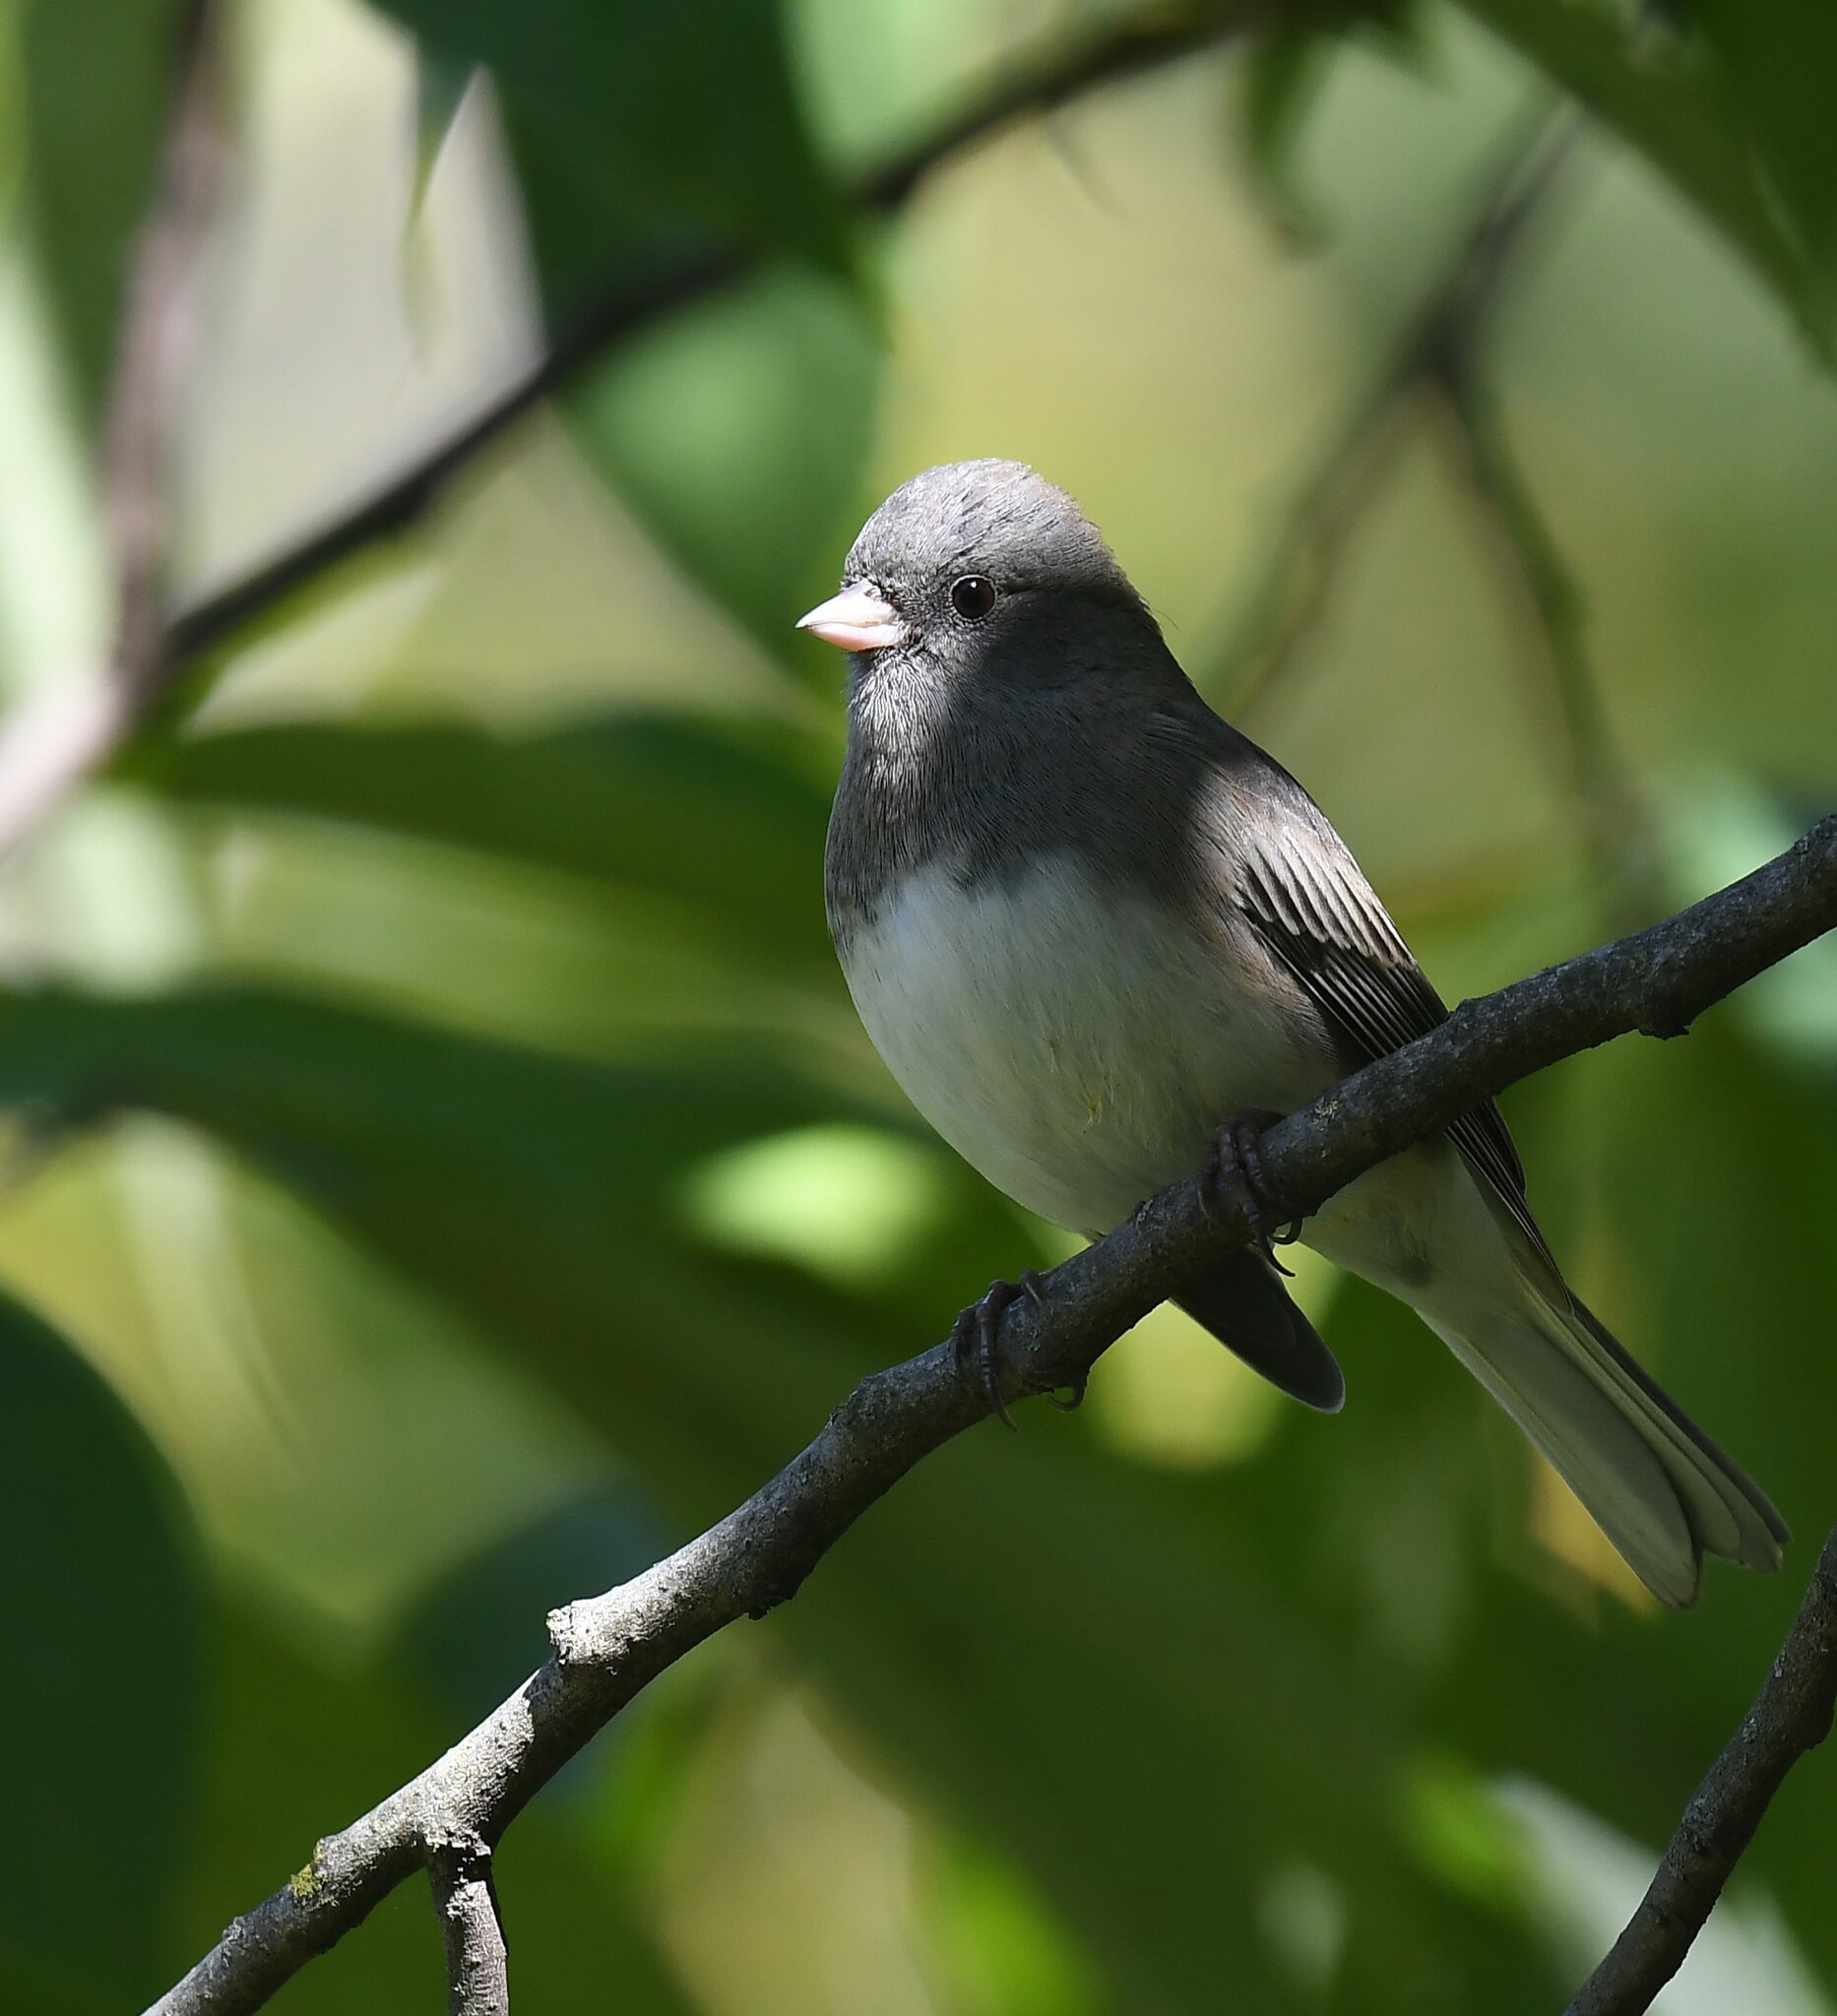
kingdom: Animalia
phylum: Chordata
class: Aves
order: Passeriformes
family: Passerellidae
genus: Junco
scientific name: Junco hyemalis
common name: Dark-eyed junco
